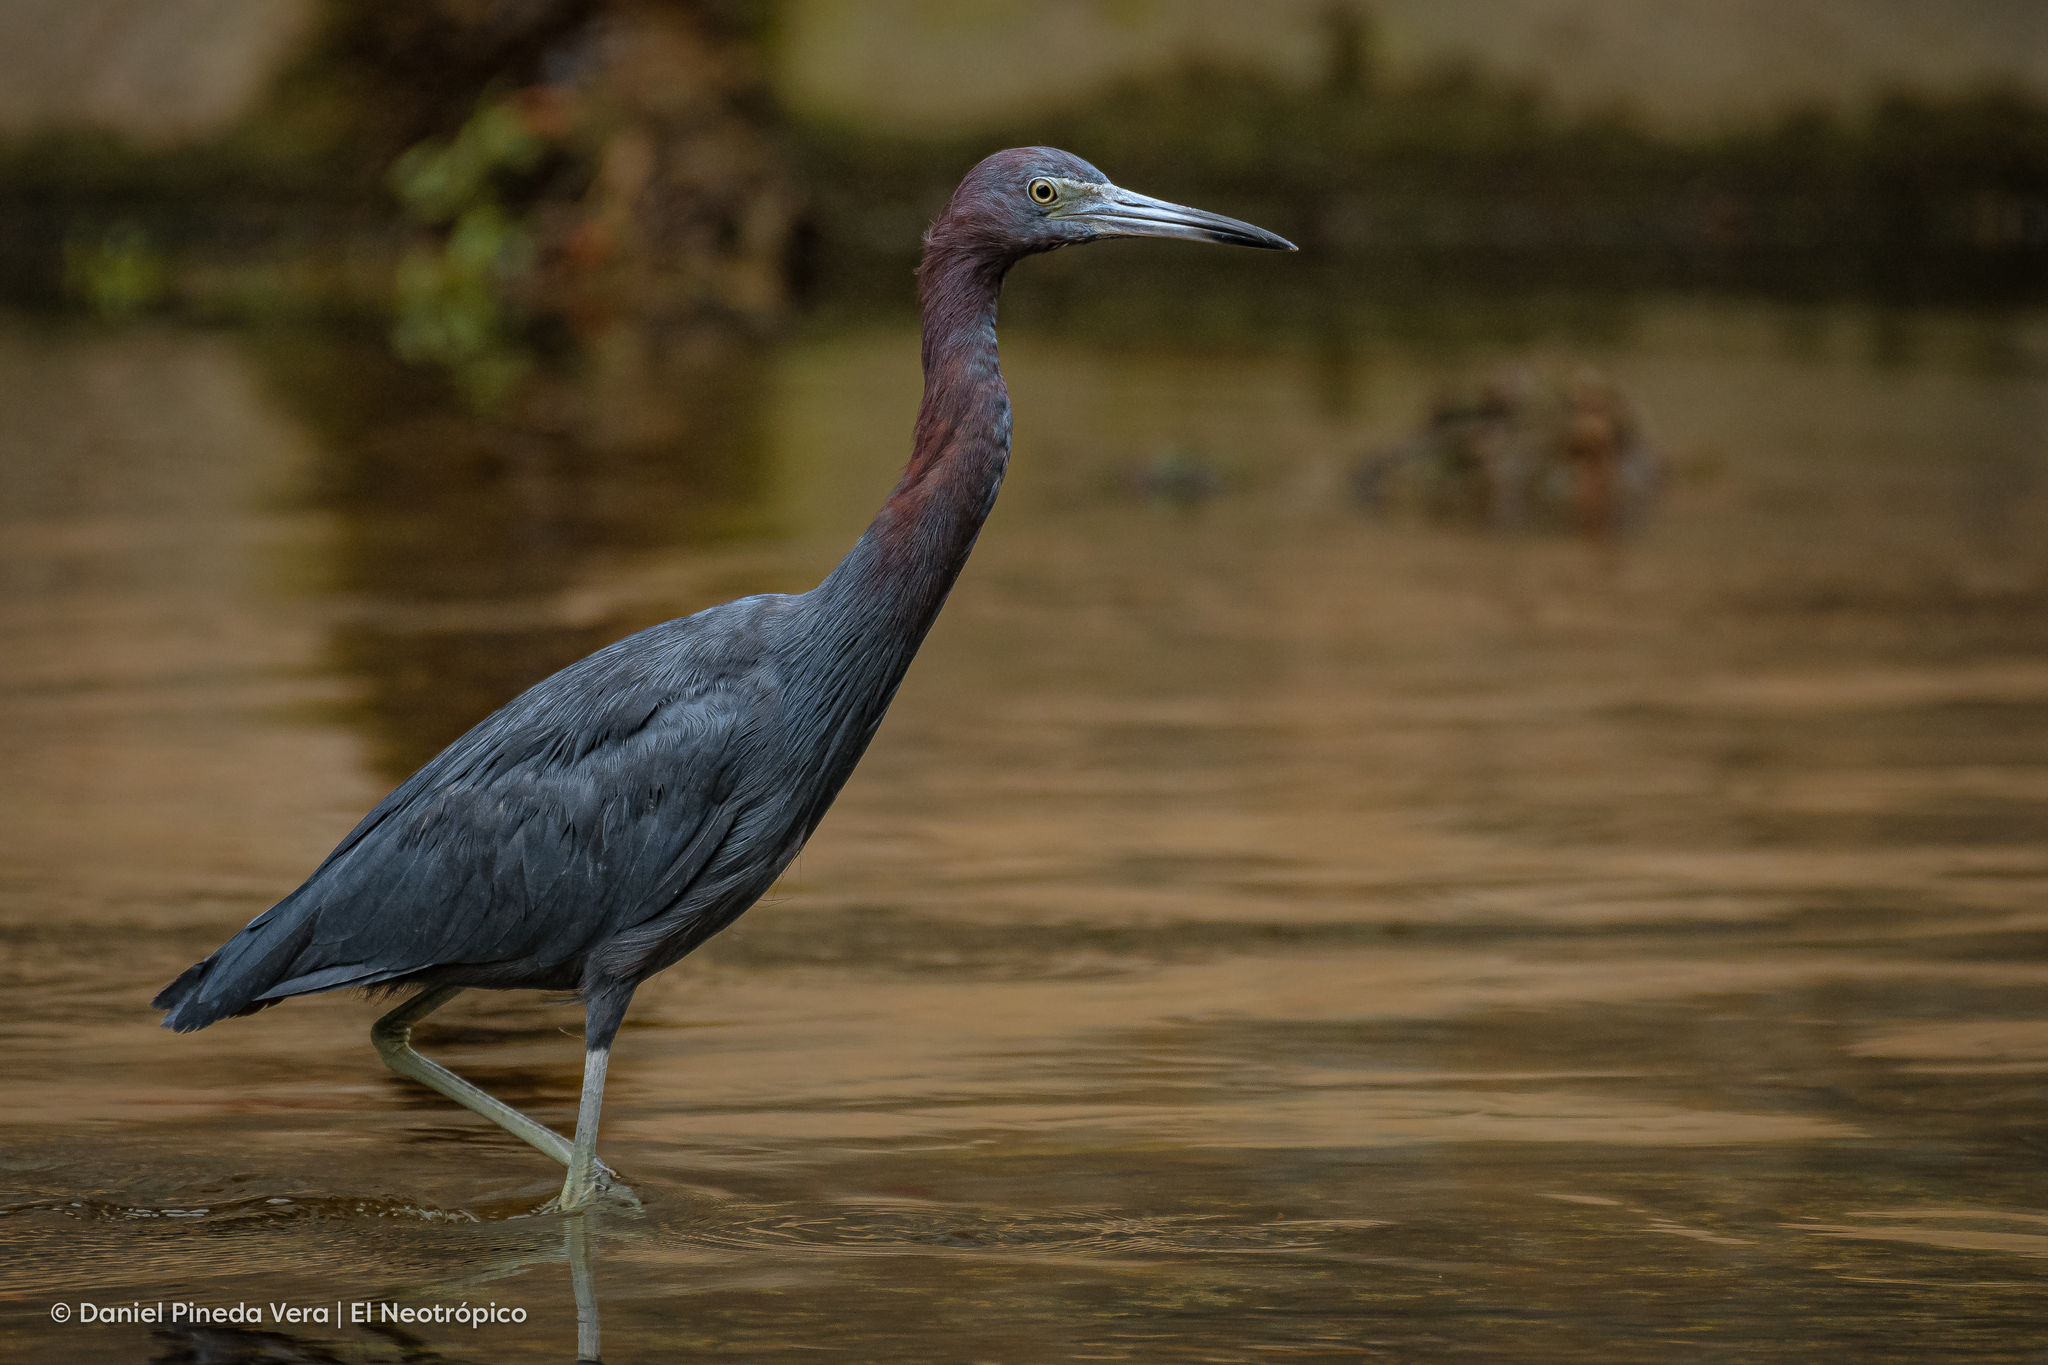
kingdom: Animalia
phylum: Chordata
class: Aves
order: Pelecaniformes
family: Ardeidae
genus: Egretta
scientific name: Egretta caerulea
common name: Little blue heron
